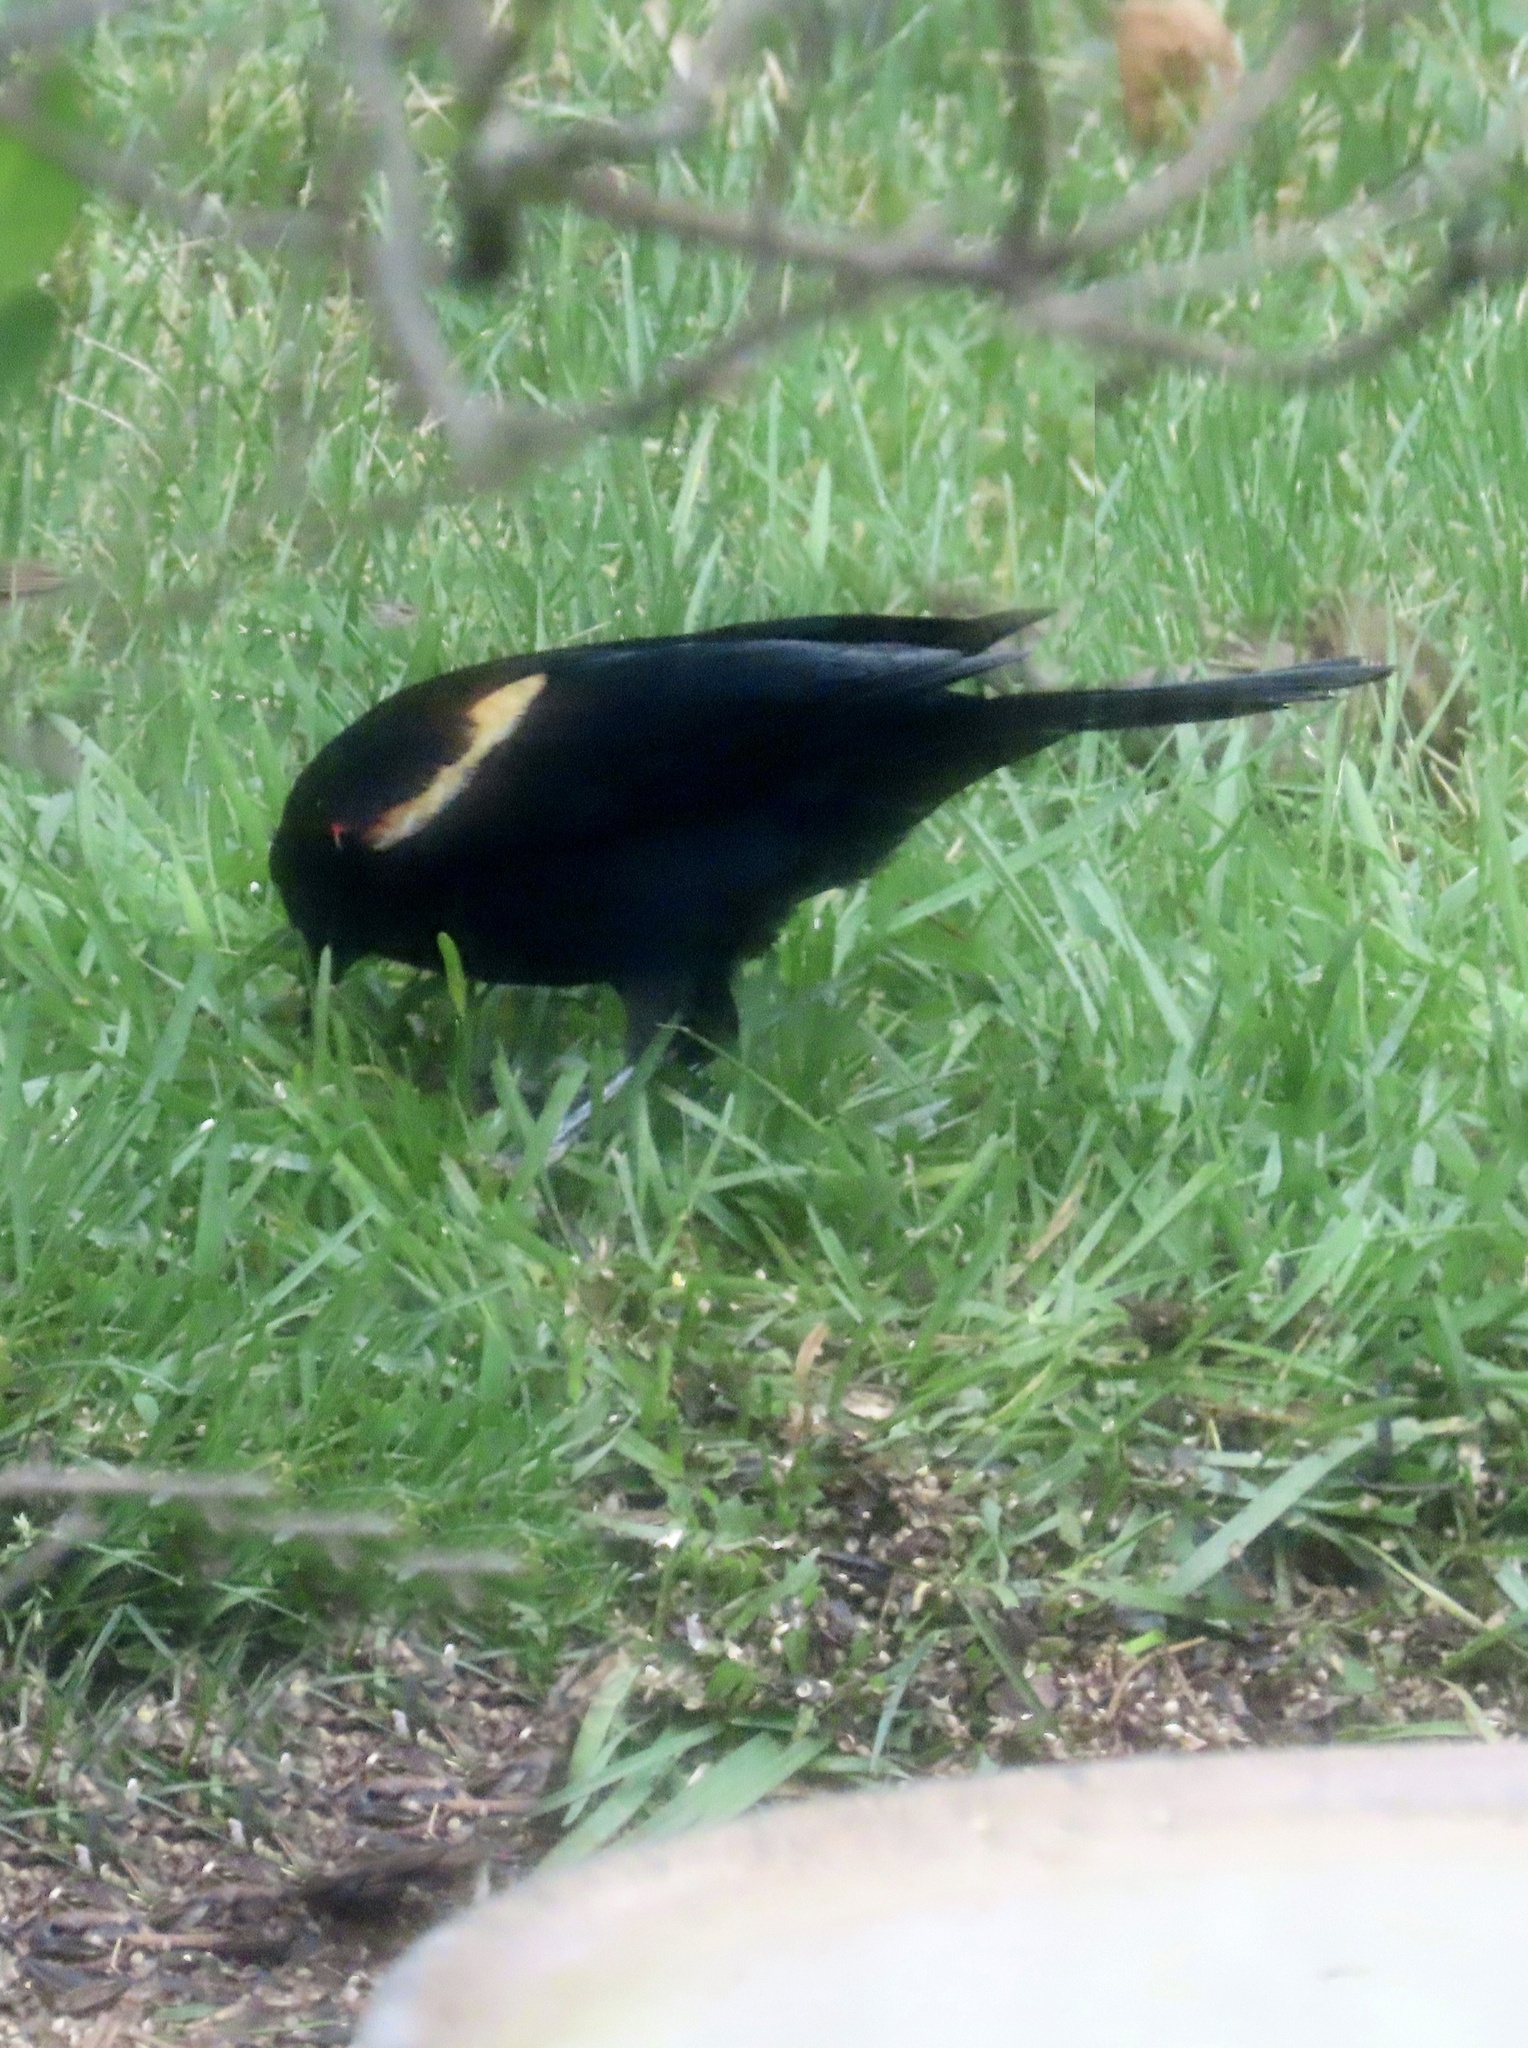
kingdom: Animalia
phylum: Chordata
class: Aves
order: Passeriformes
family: Icteridae
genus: Agelaius
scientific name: Agelaius phoeniceus
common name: Red-winged blackbird
